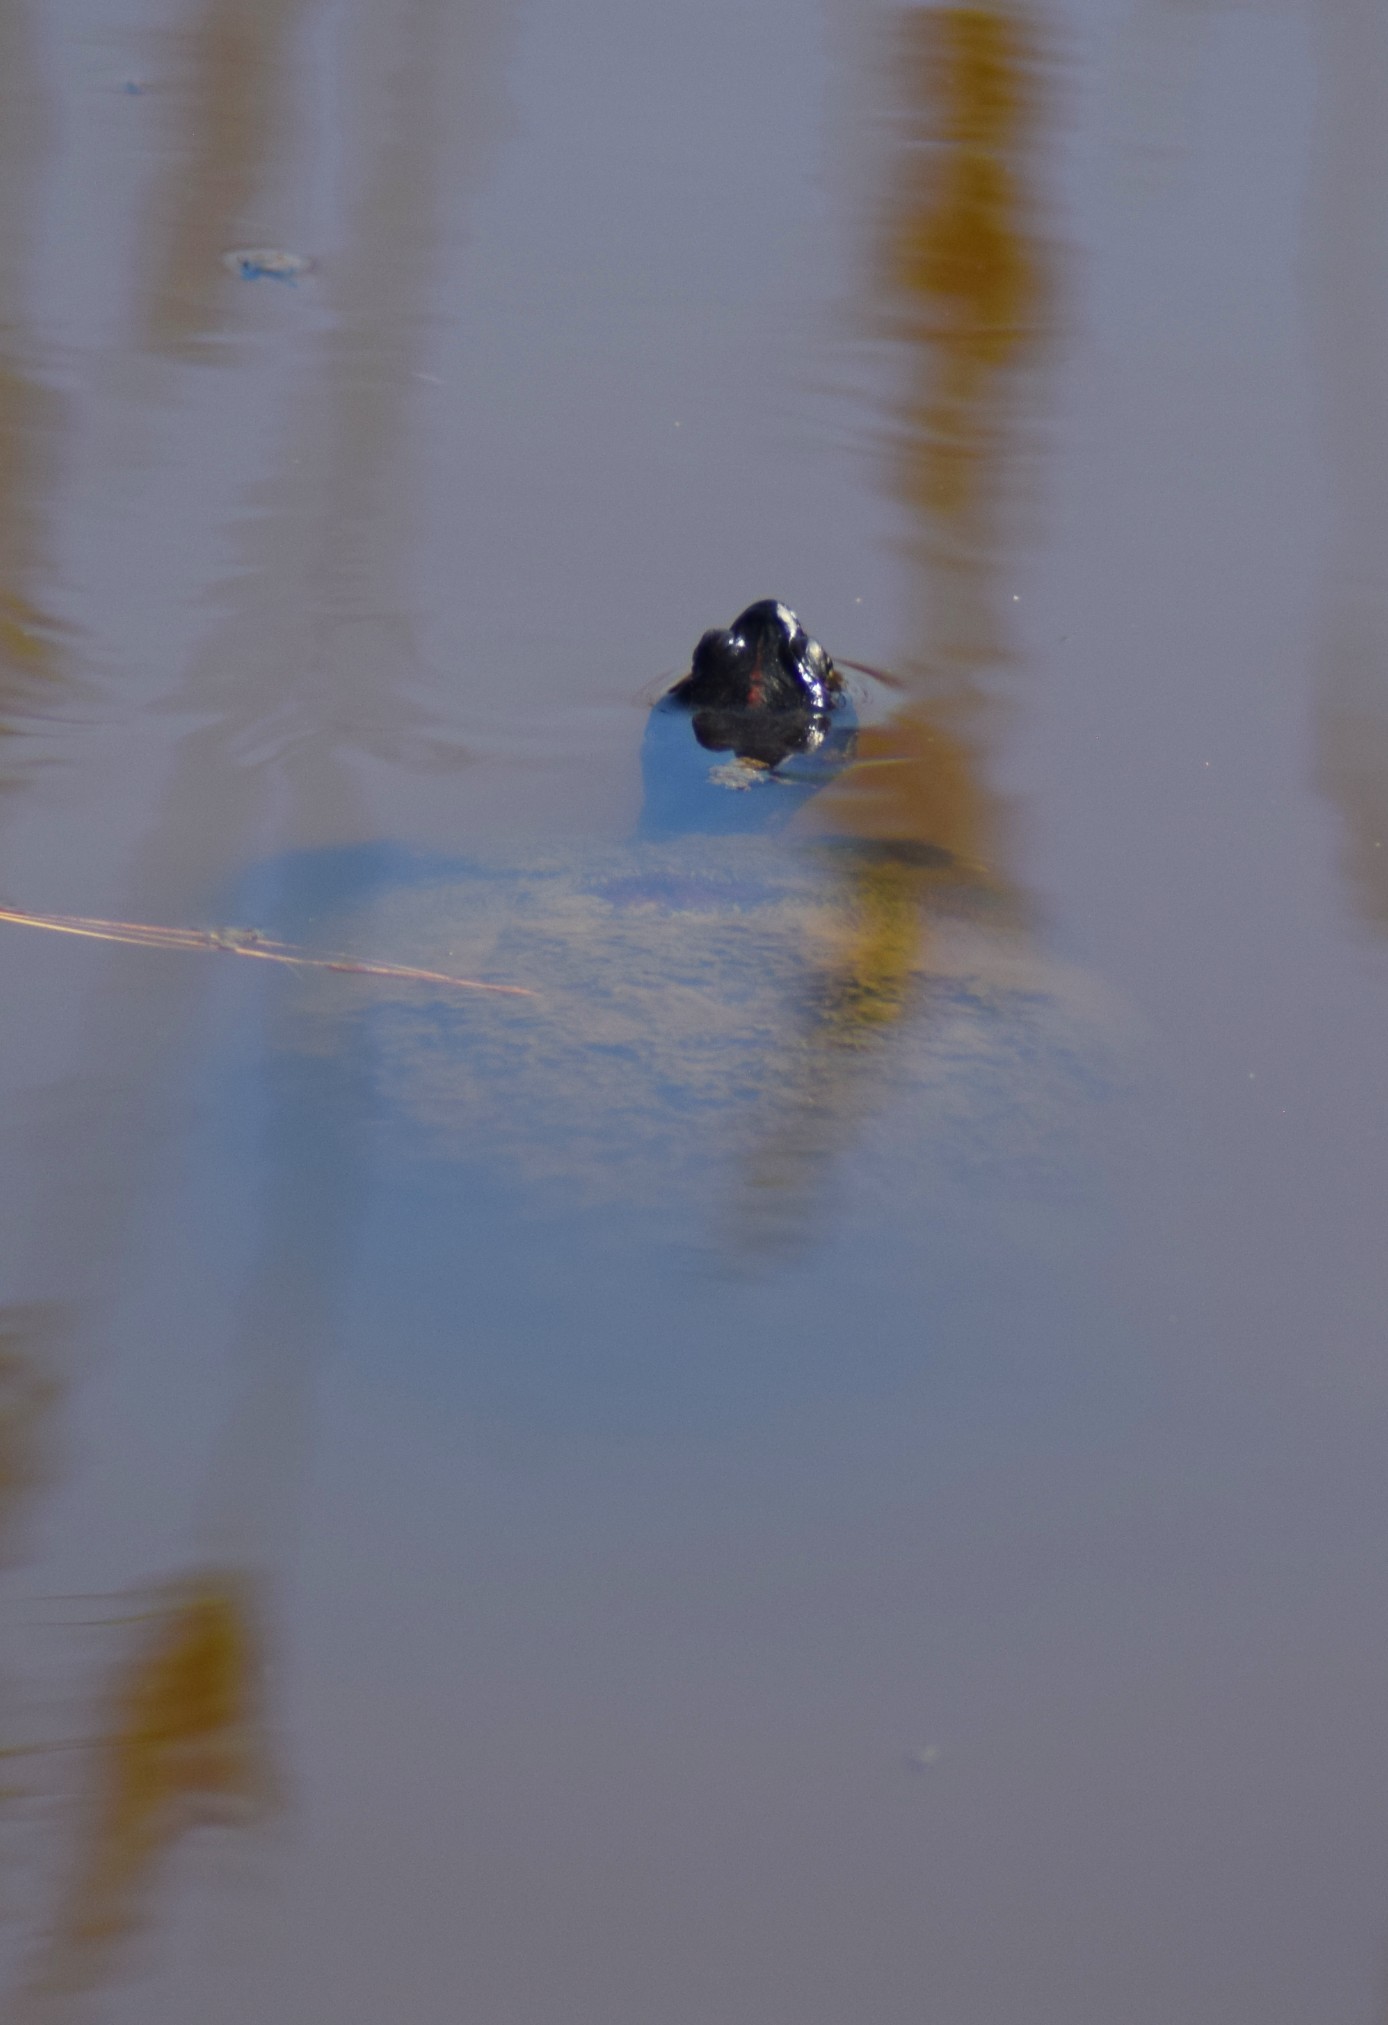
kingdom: Animalia
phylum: Chordata
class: Testudines
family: Emydidae
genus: Pseudemys
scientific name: Pseudemys rubriventris
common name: American red-bellied turtle
